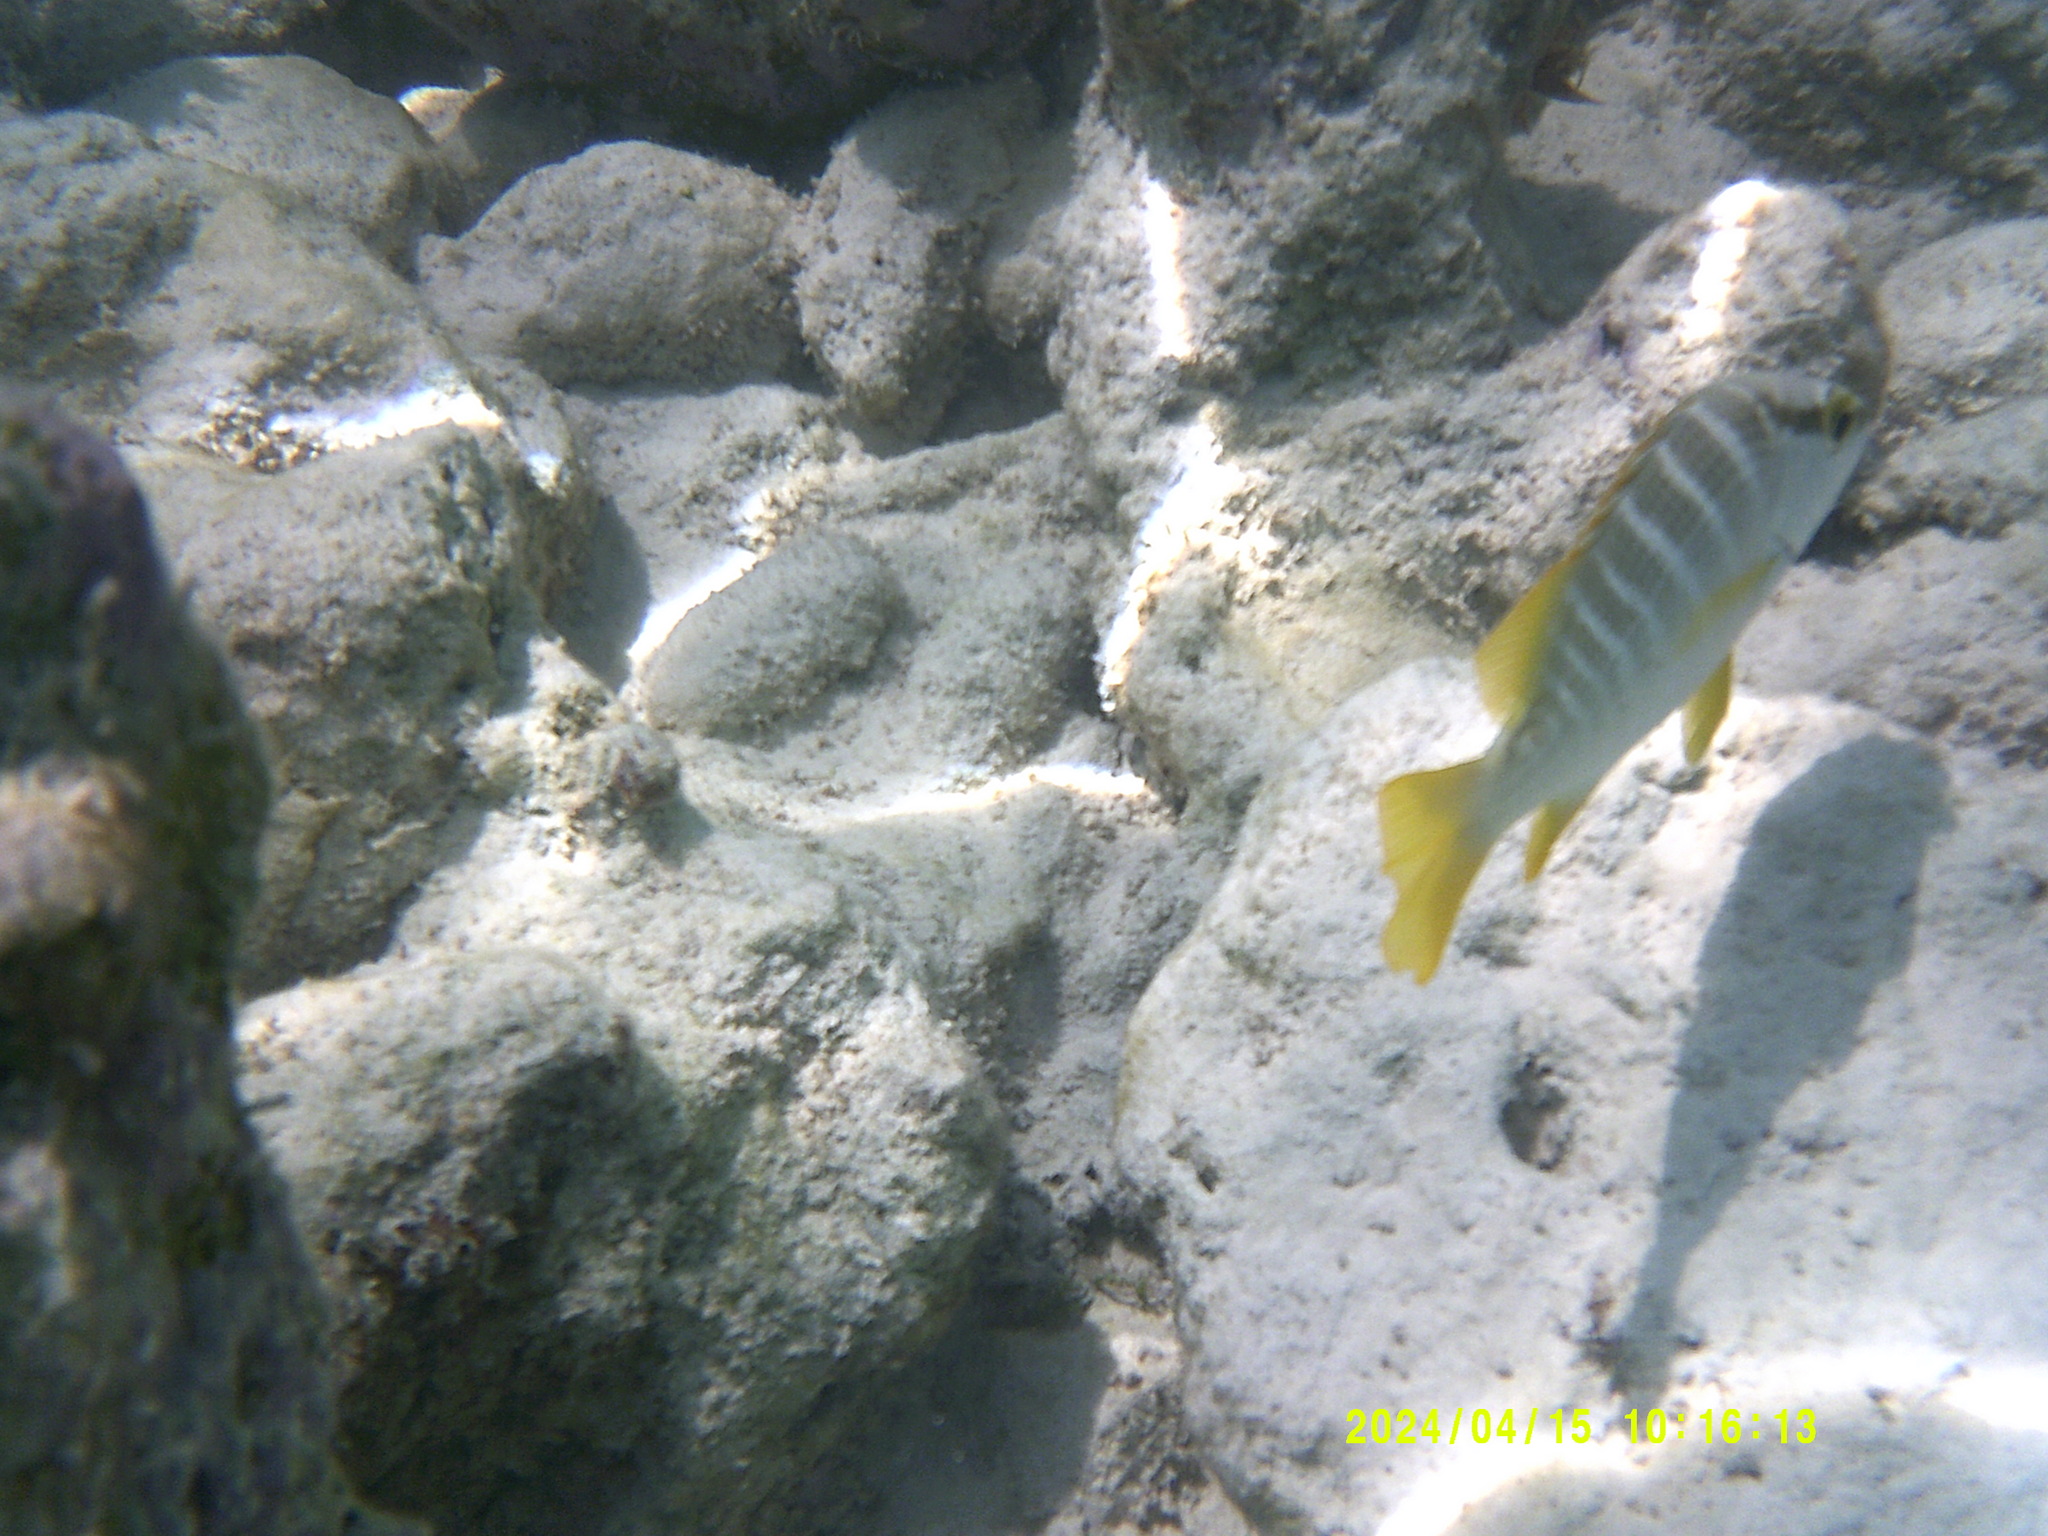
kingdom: Animalia
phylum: Chordata
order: Perciformes
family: Lutjanidae
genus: Lutjanus
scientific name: Lutjanus apodus
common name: Schoolmaster
